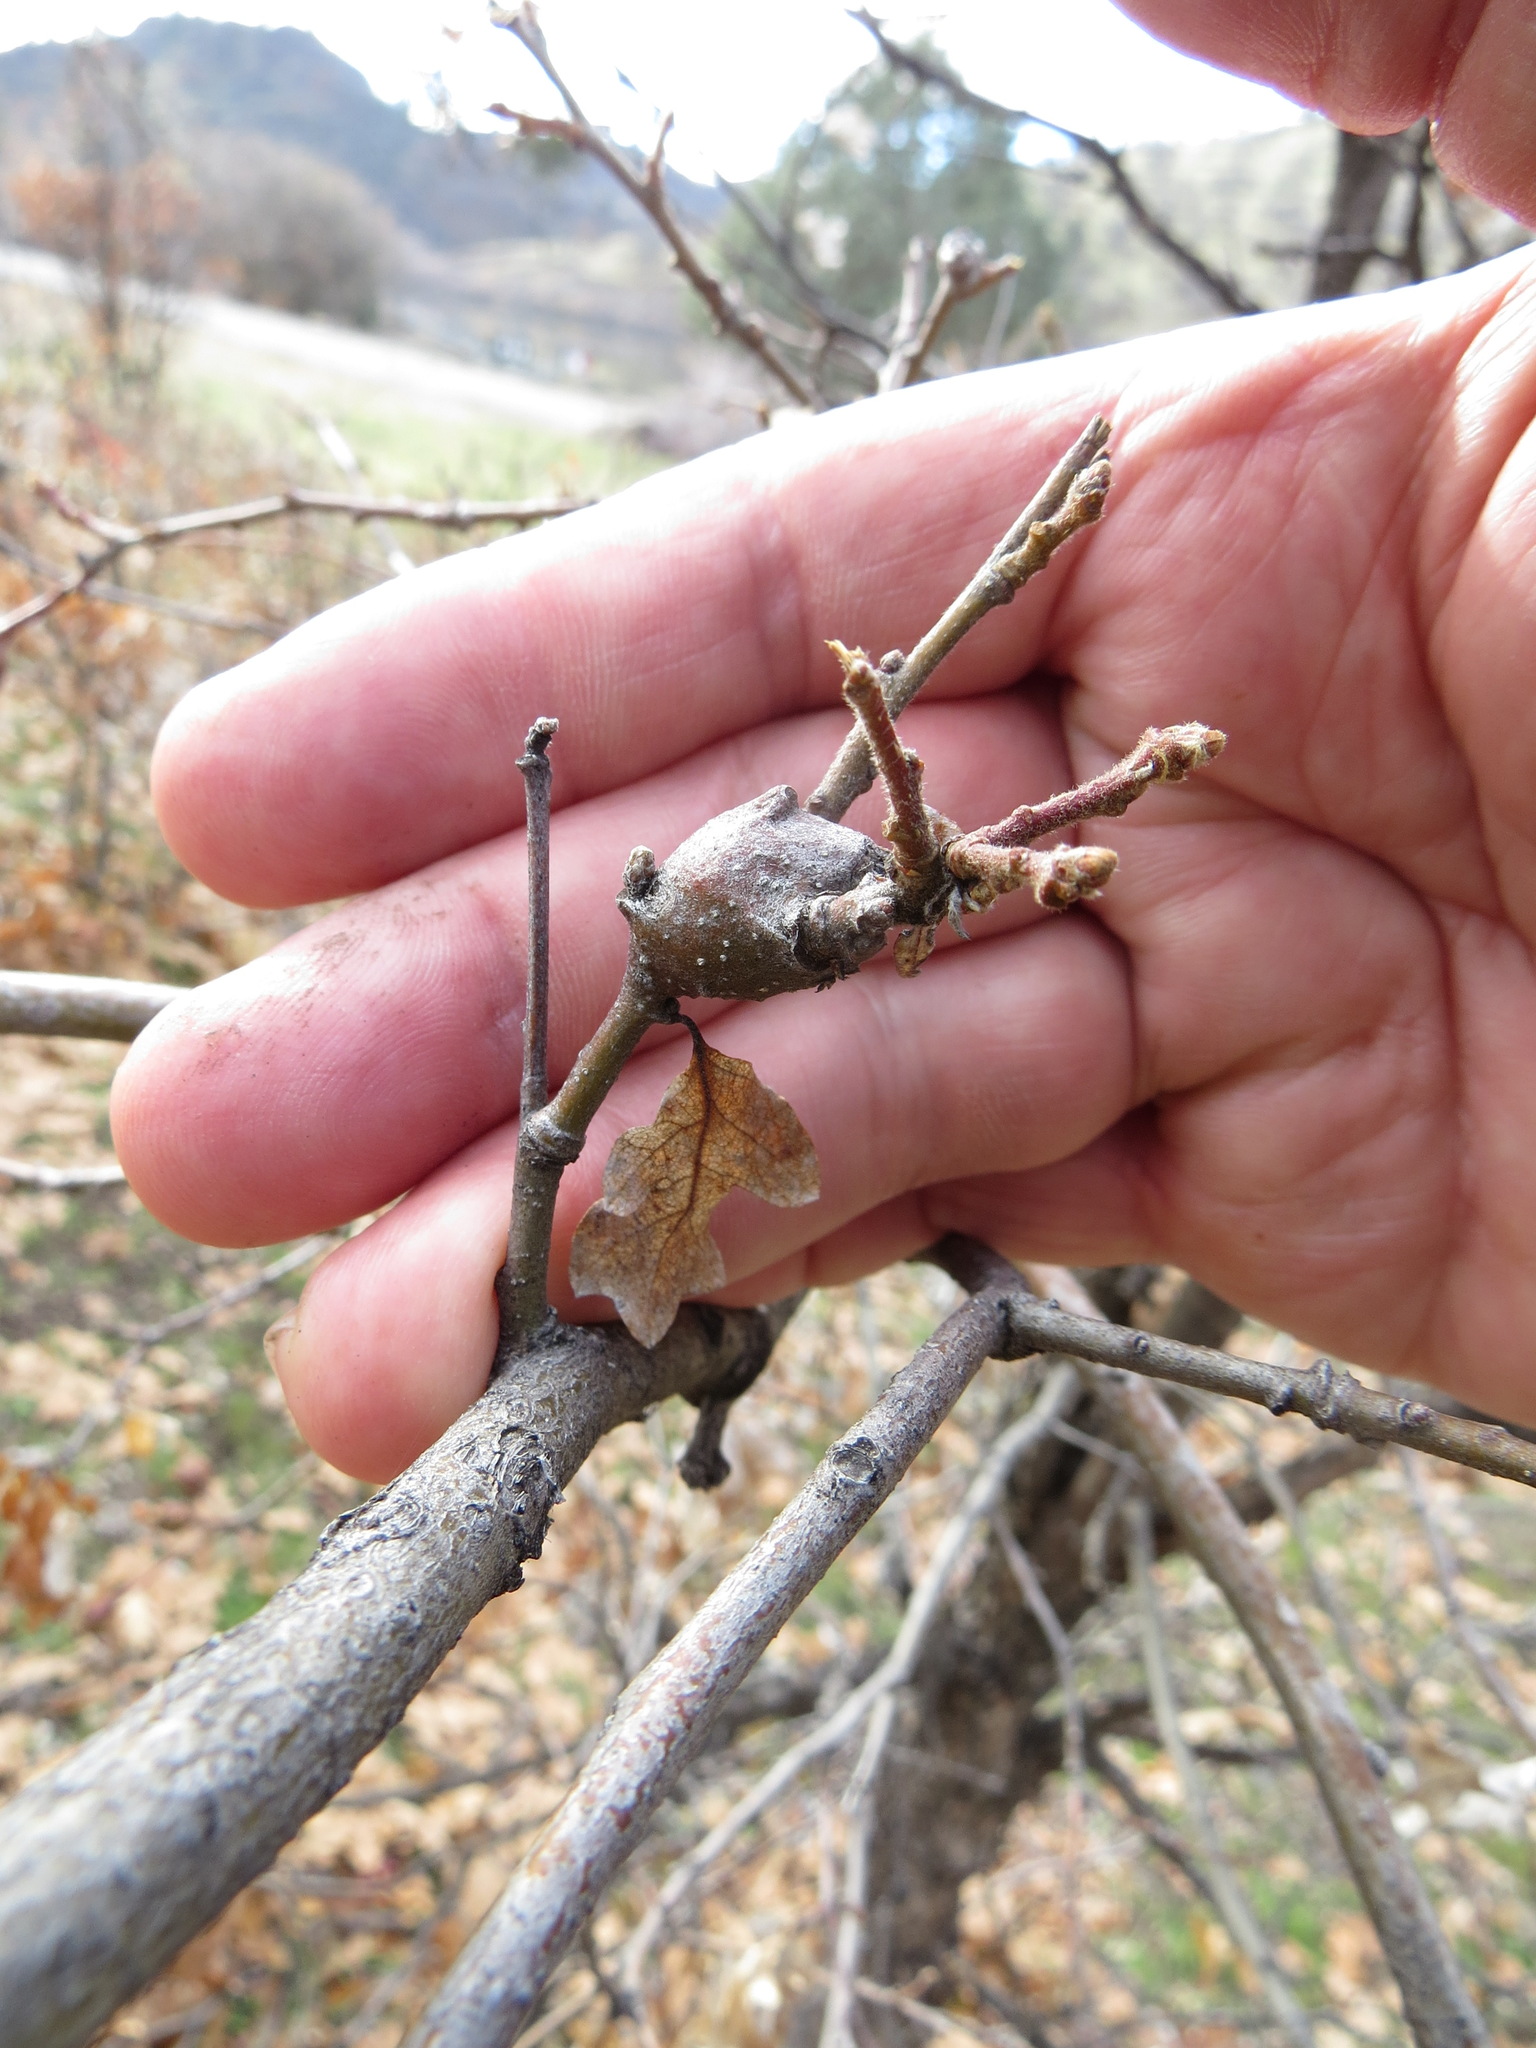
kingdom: Animalia
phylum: Arthropoda
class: Insecta
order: Hymenoptera
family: Cynipidae
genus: Andricus
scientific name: Andricus
